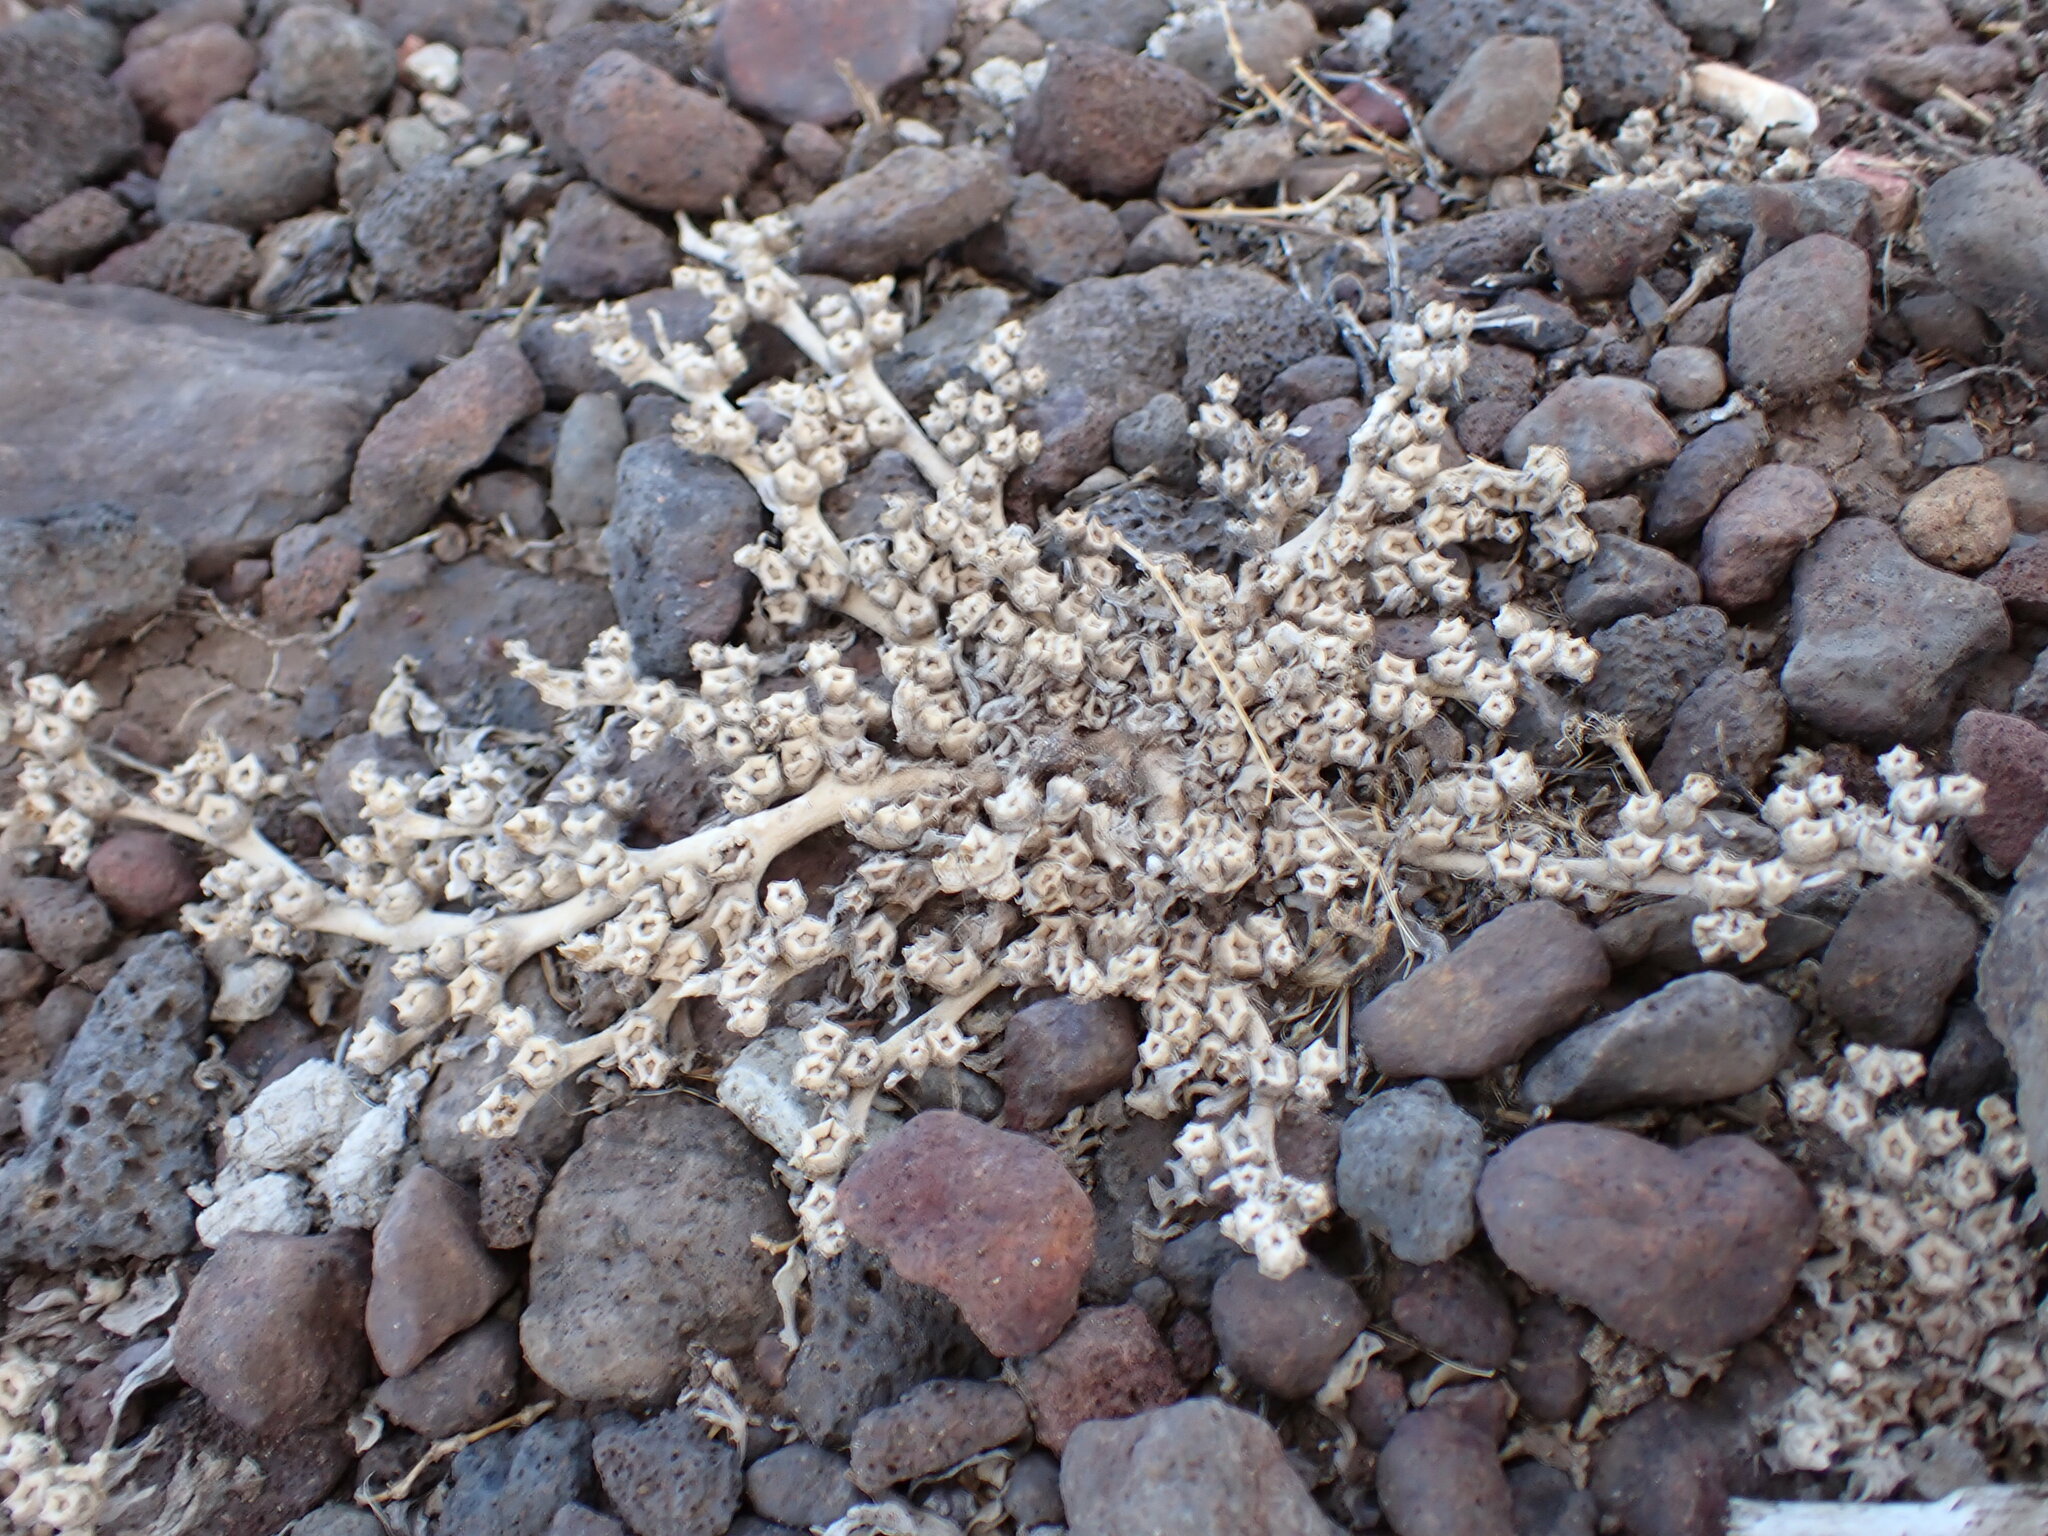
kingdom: Plantae
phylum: Tracheophyta
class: Magnoliopsida
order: Caryophyllales
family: Aizoaceae
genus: Aizoon
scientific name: Aizoon canariense
